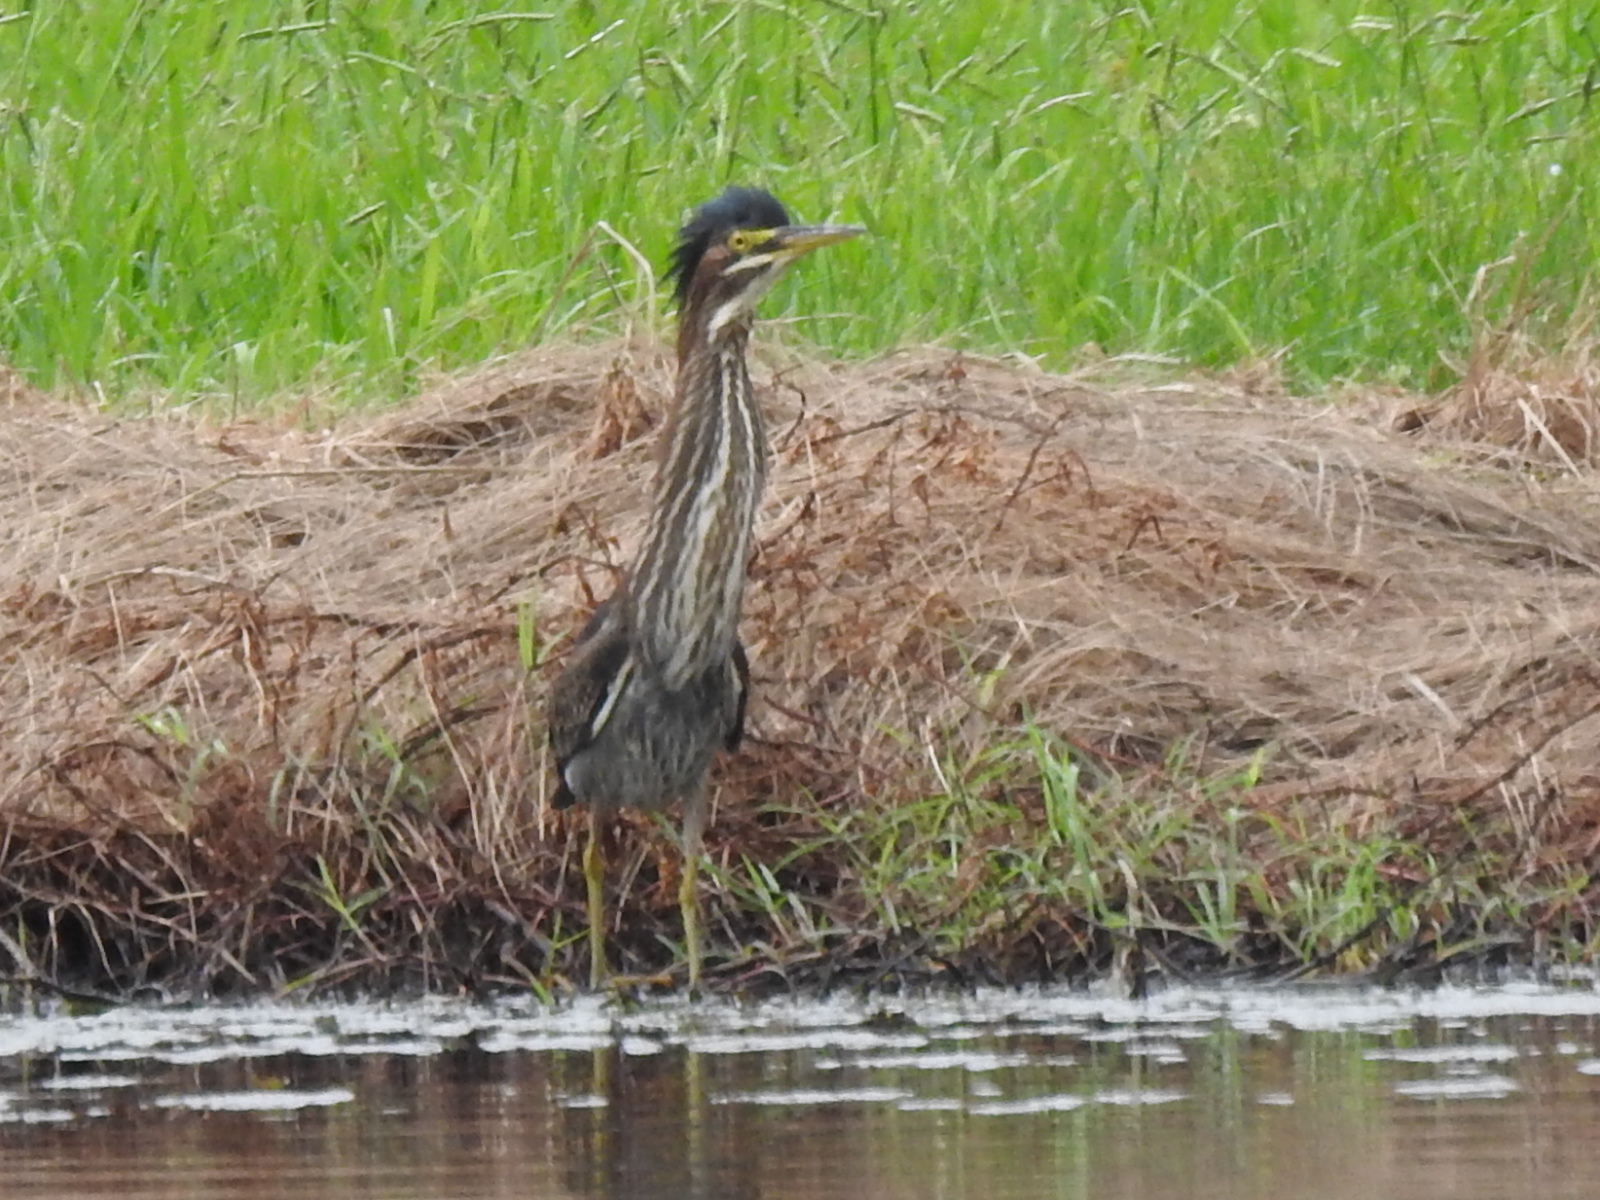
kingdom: Animalia
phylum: Chordata
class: Aves
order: Pelecaniformes
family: Ardeidae
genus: Butorides
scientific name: Butorides virescens
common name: Green heron
